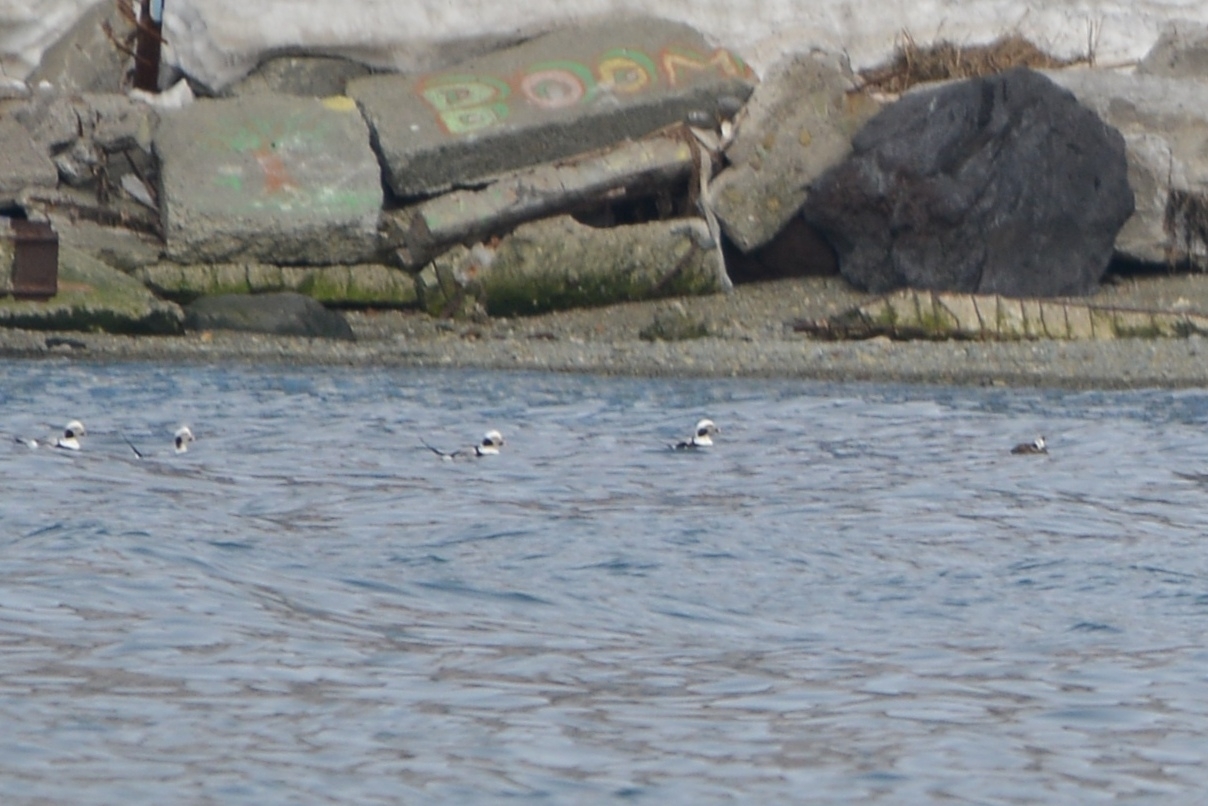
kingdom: Animalia
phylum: Chordata
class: Aves
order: Anseriformes
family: Anatidae
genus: Clangula
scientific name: Clangula hyemalis
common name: Long-tailed duck
